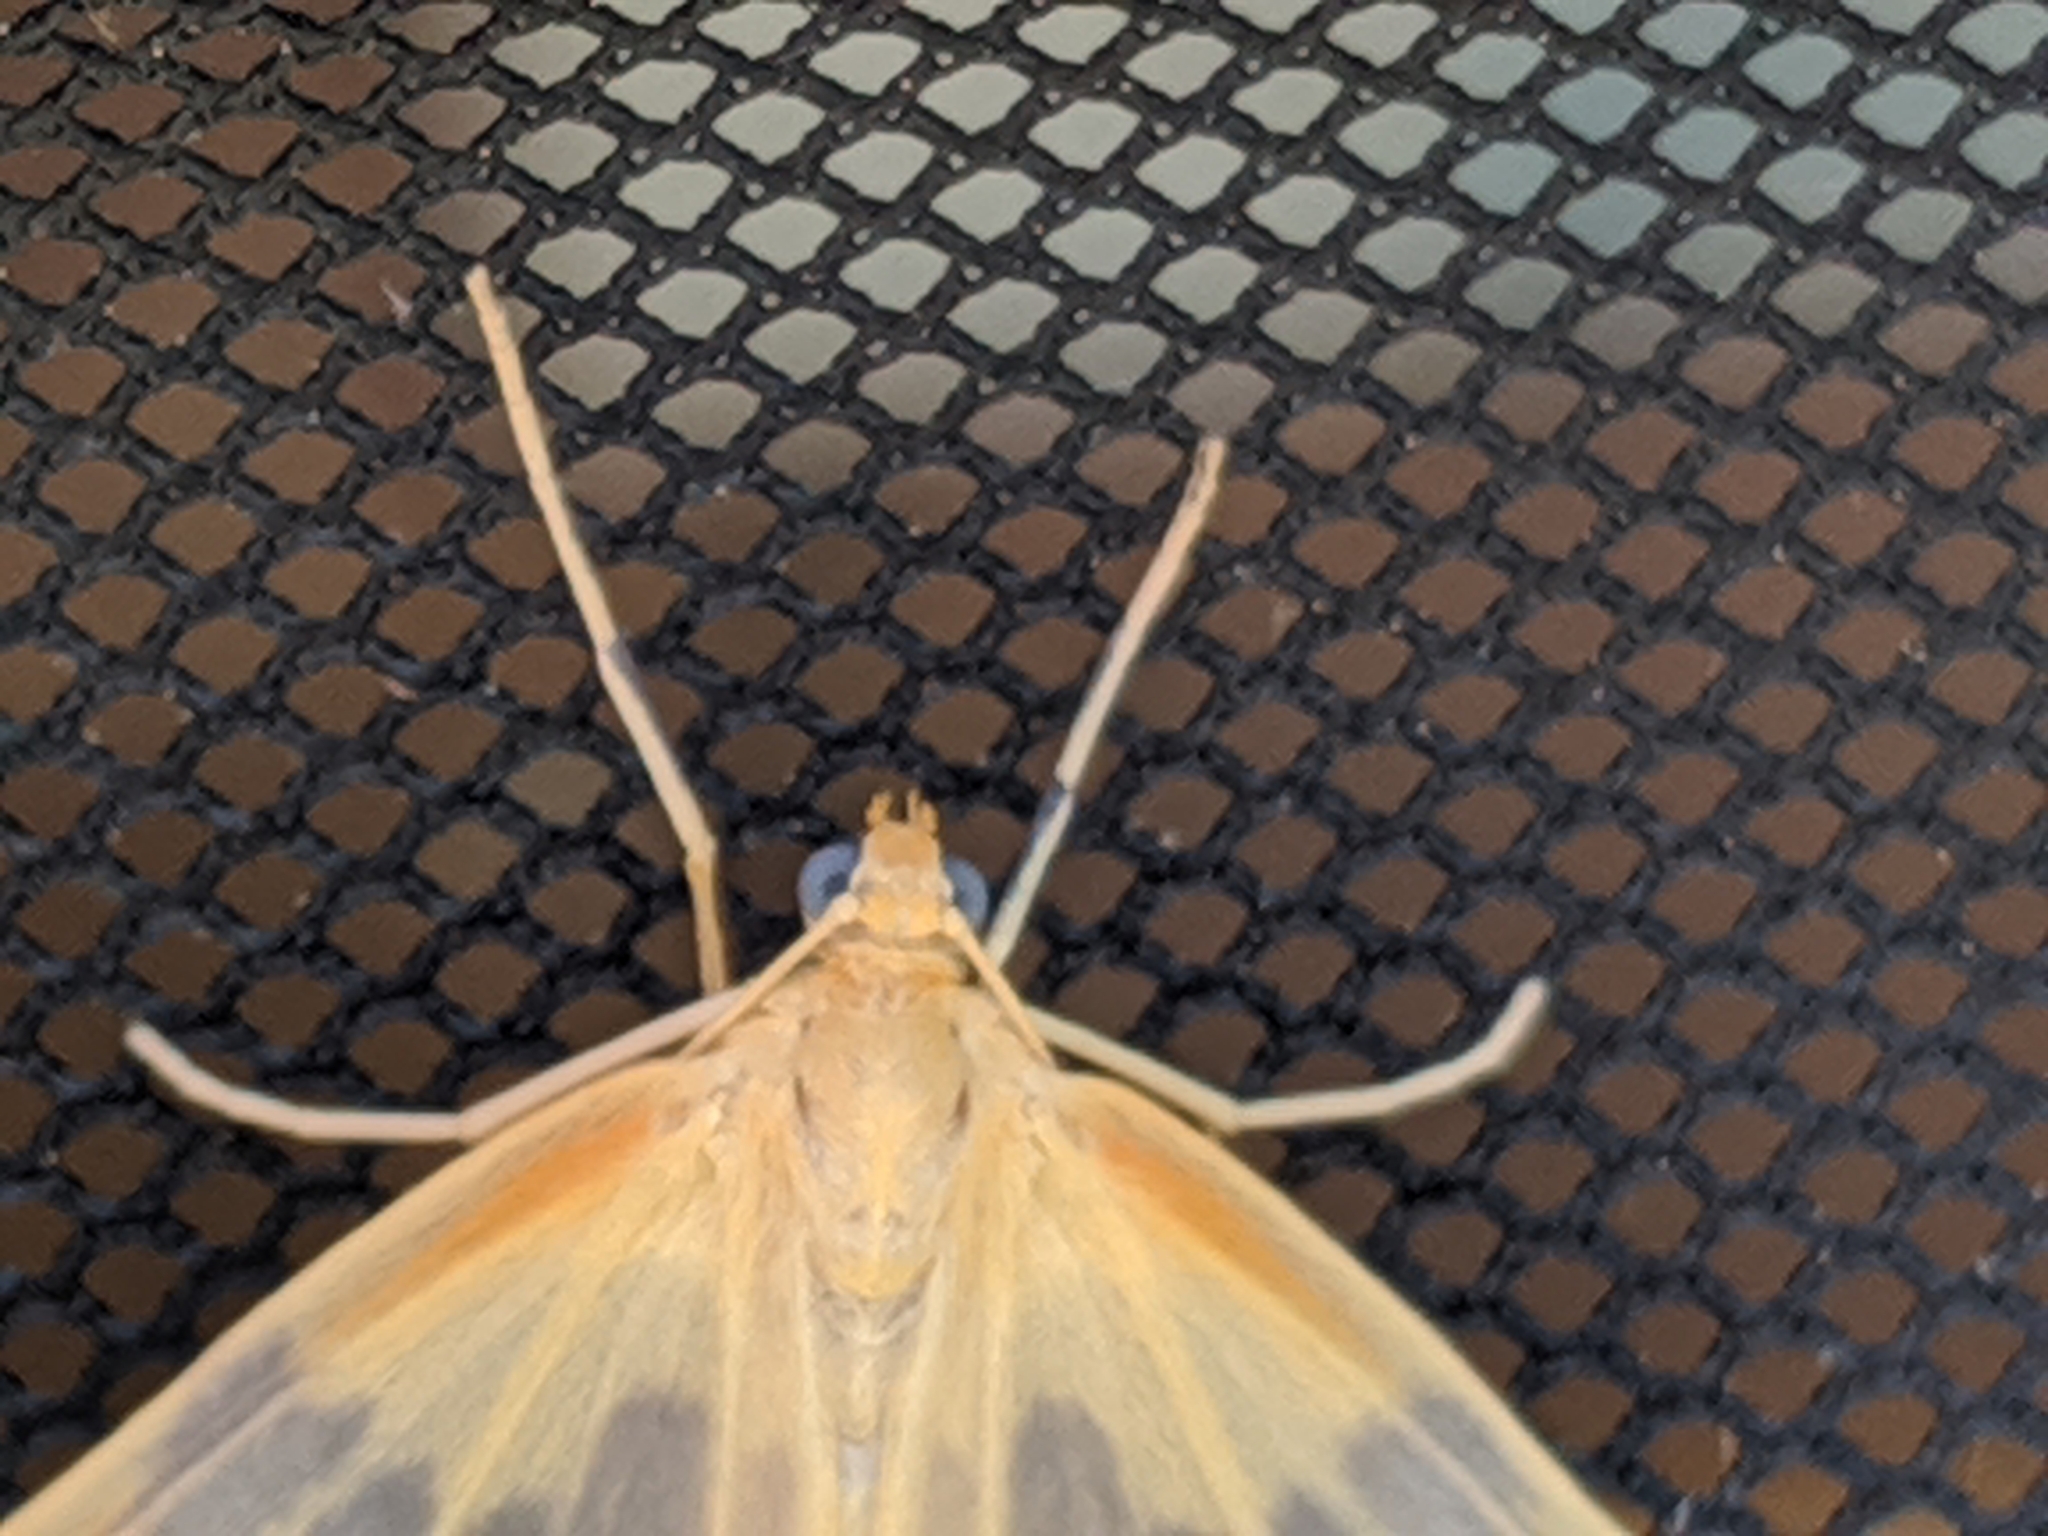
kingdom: Animalia
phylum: Arthropoda
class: Insecta
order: Lepidoptera
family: Geometridae
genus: Eubaphe
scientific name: Eubaphe mendica
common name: Beggar
